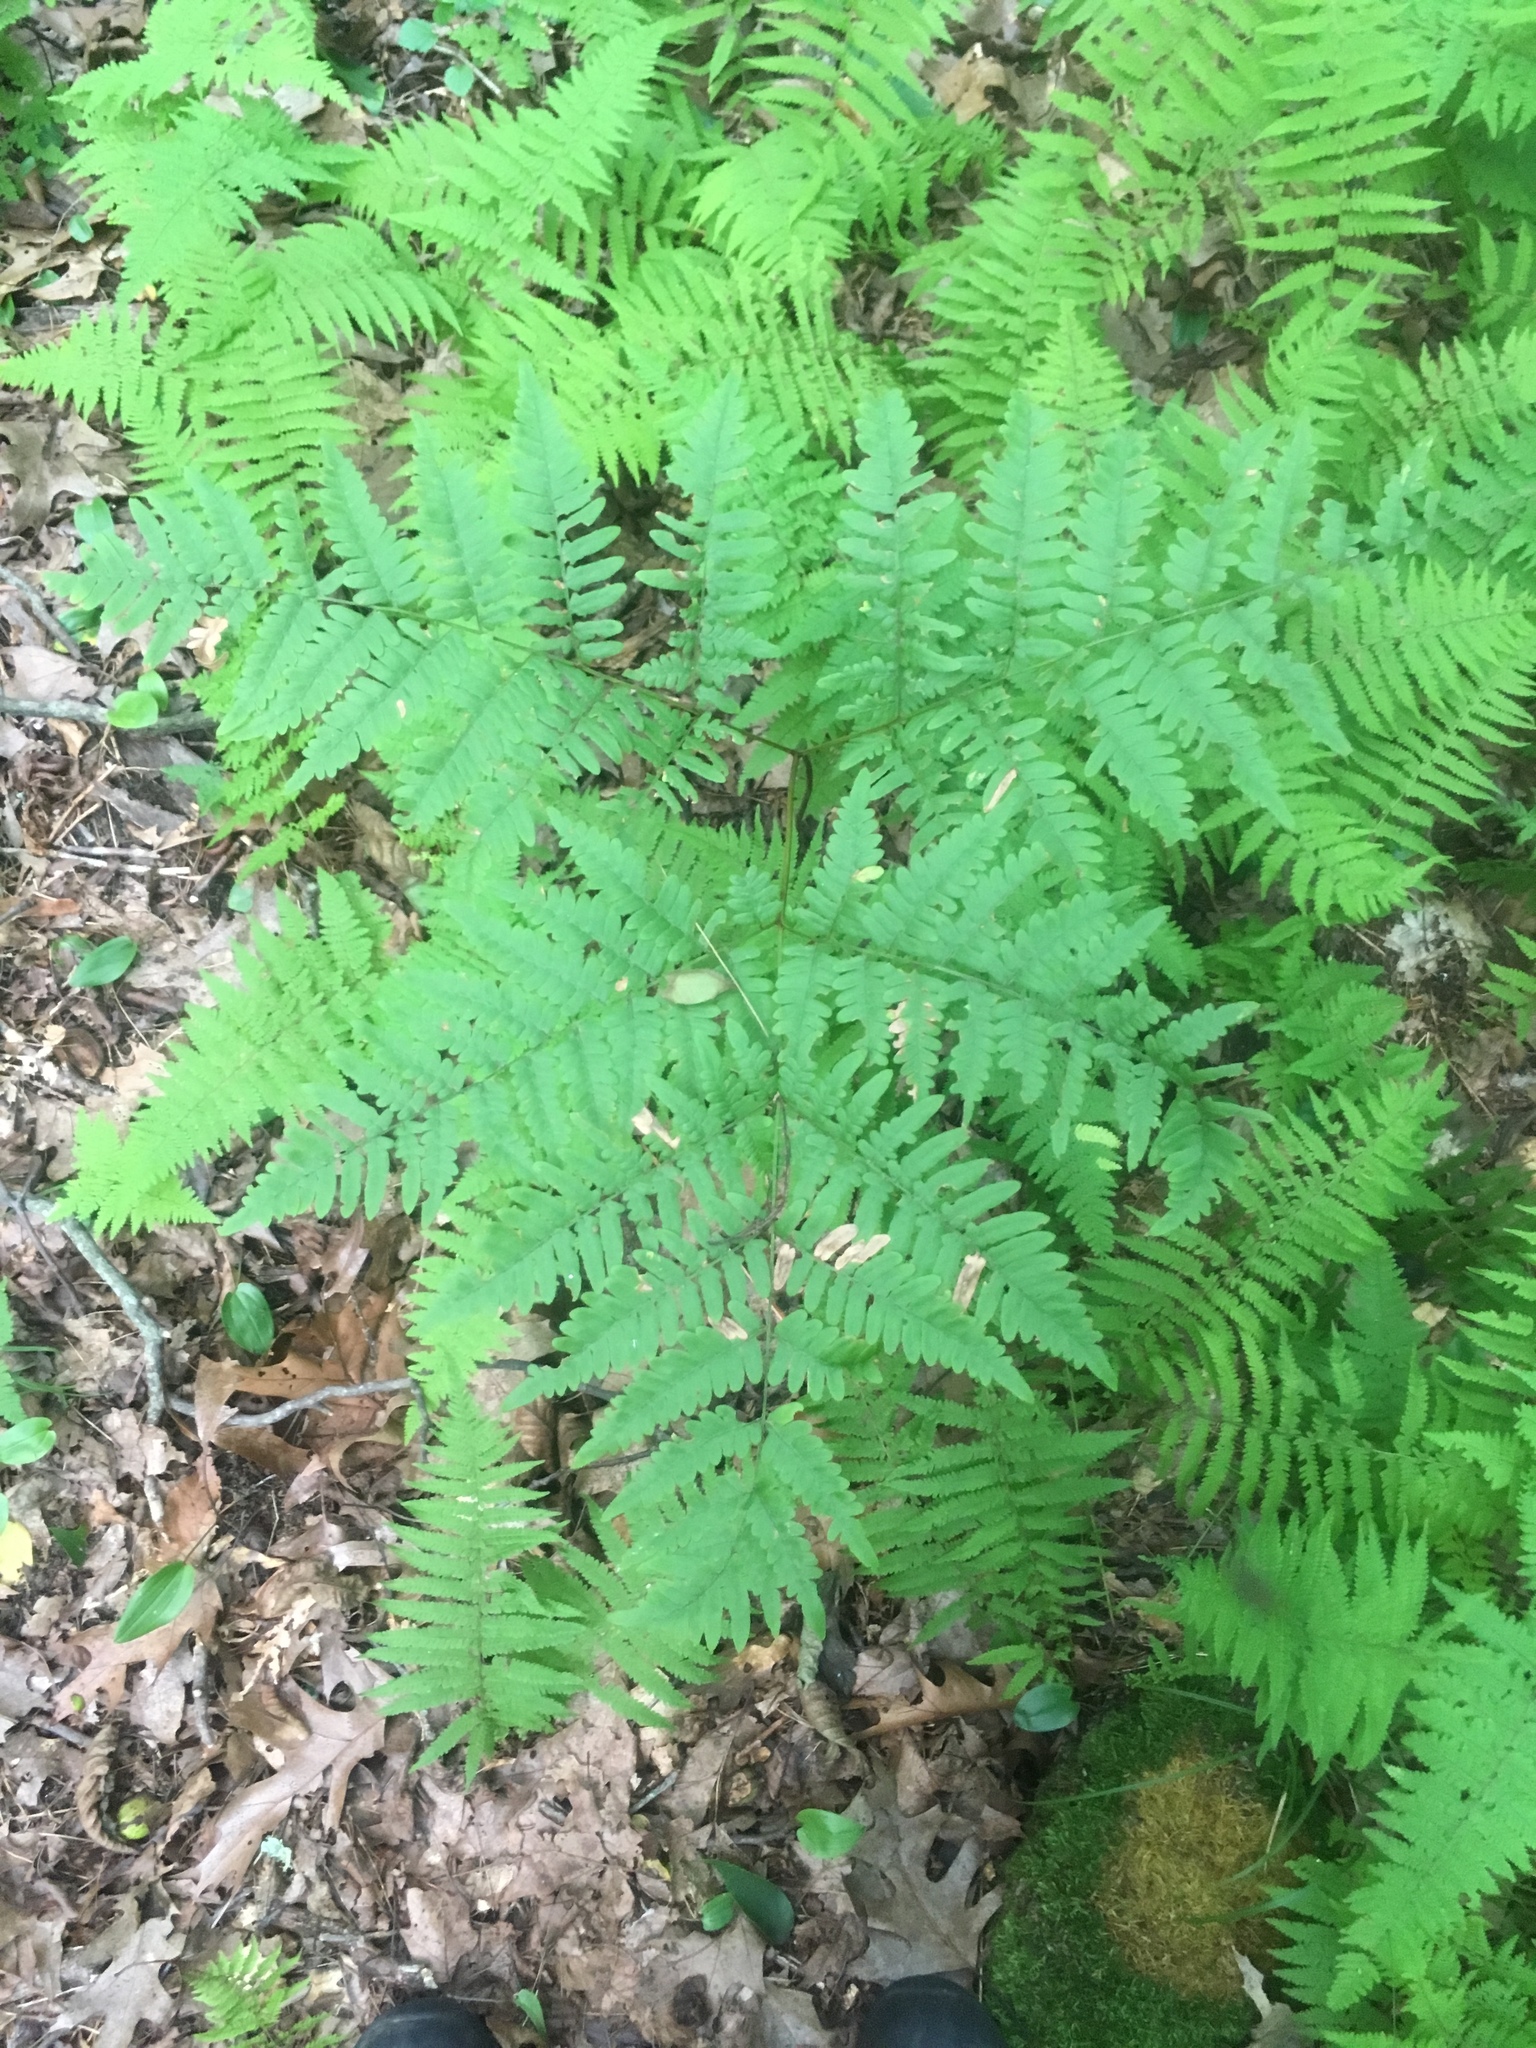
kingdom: Plantae
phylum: Tracheophyta
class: Polypodiopsida
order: Polypodiales
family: Dennstaedtiaceae
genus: Pteridium
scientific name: Pteridium aquilinum
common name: Bracken
